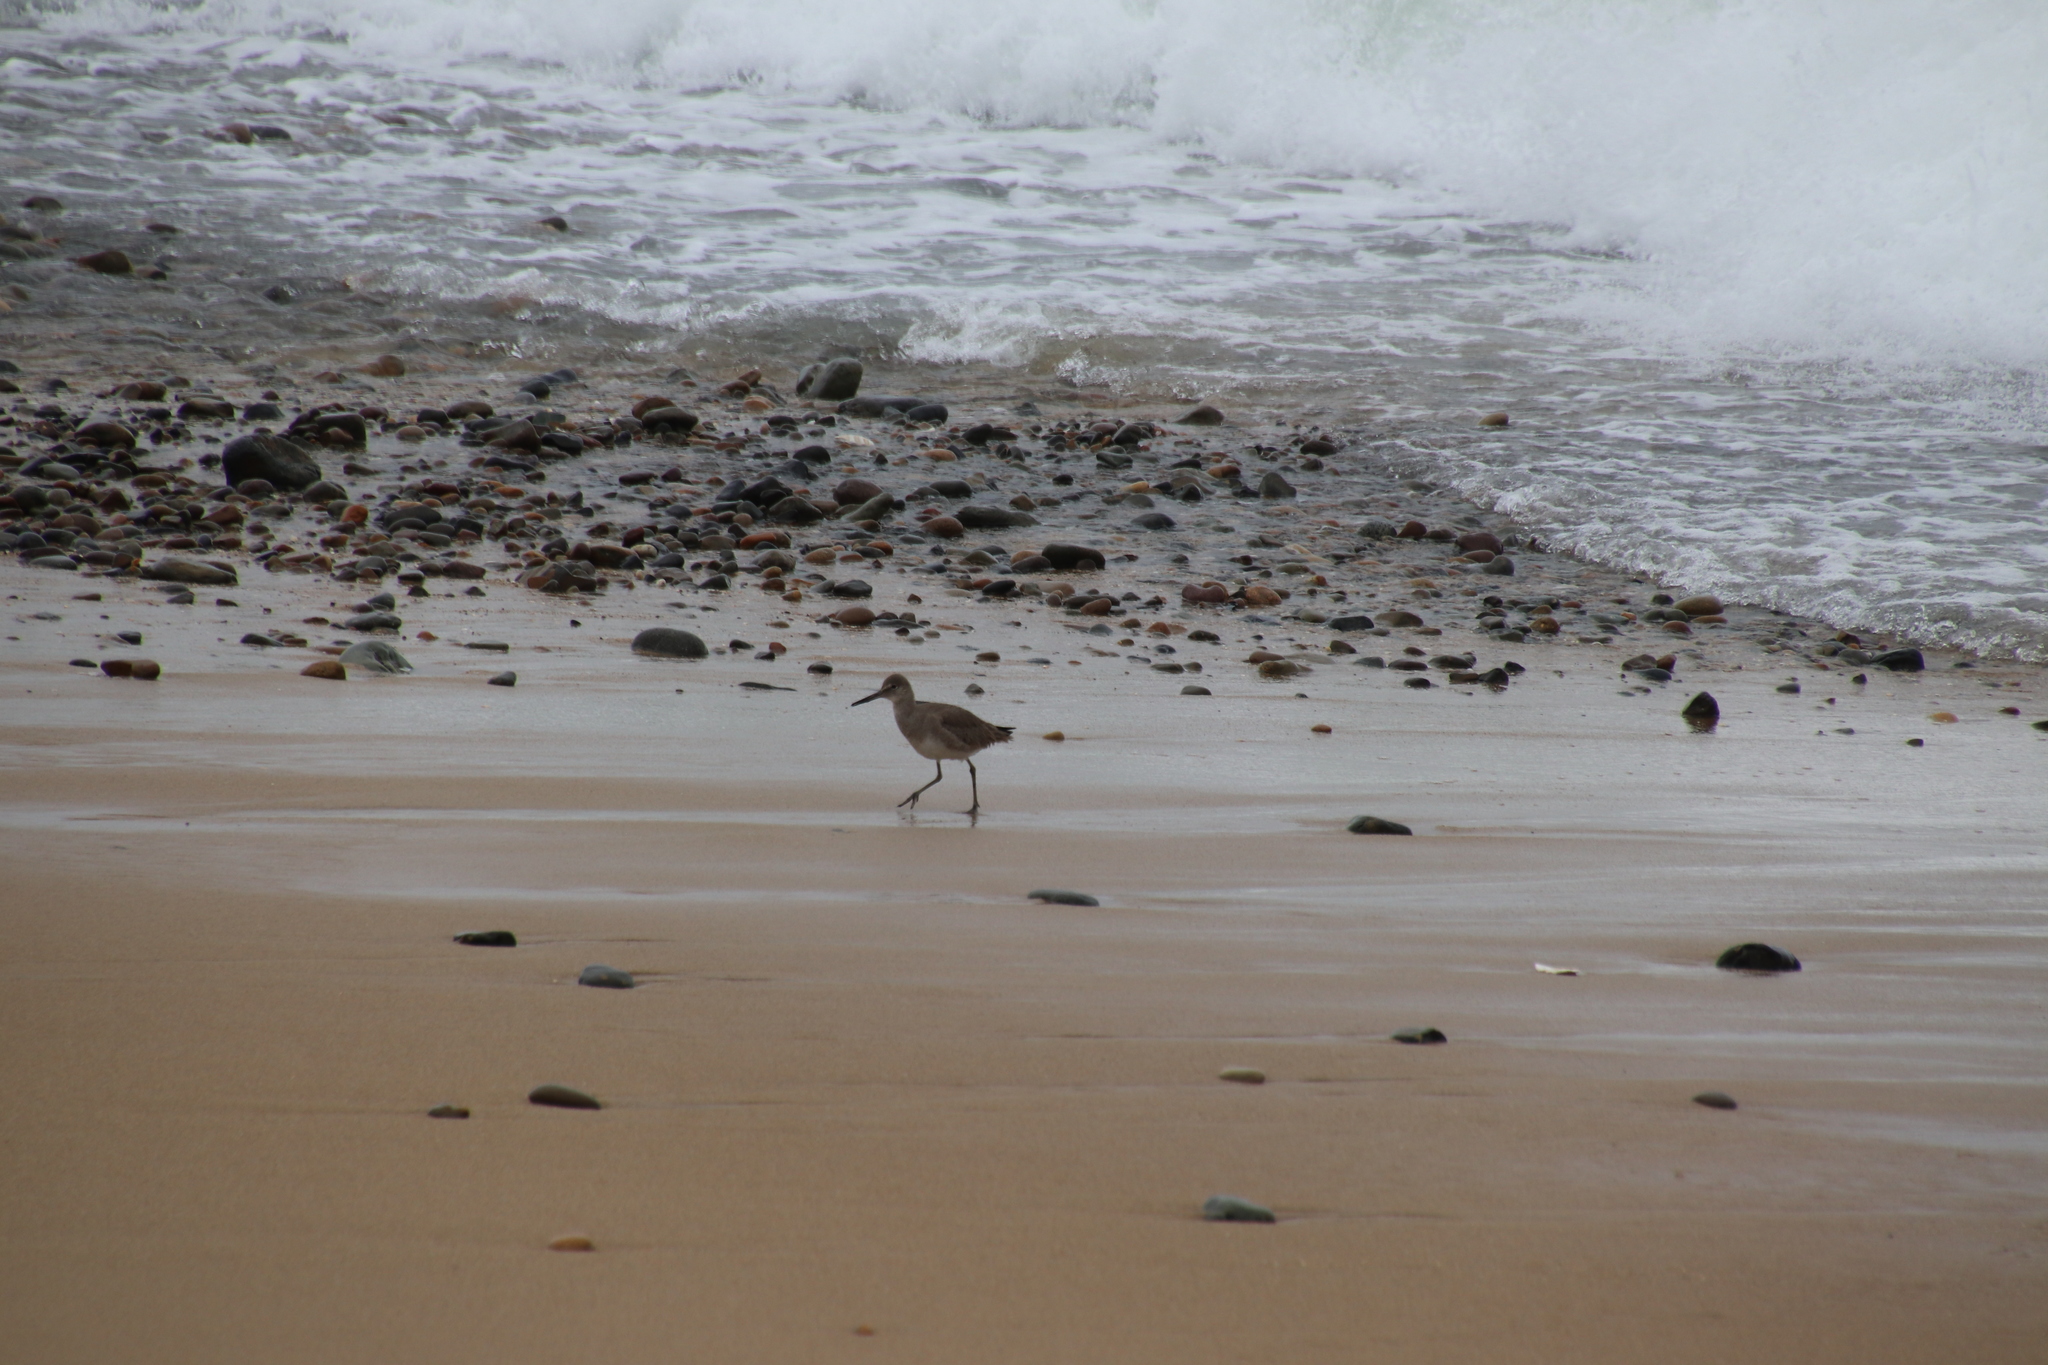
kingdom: Animalia
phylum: Chordata
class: Aves
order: Charadriiformes
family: Scolopacidae
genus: Tringa
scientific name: Tringa semipalmata
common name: Willet
